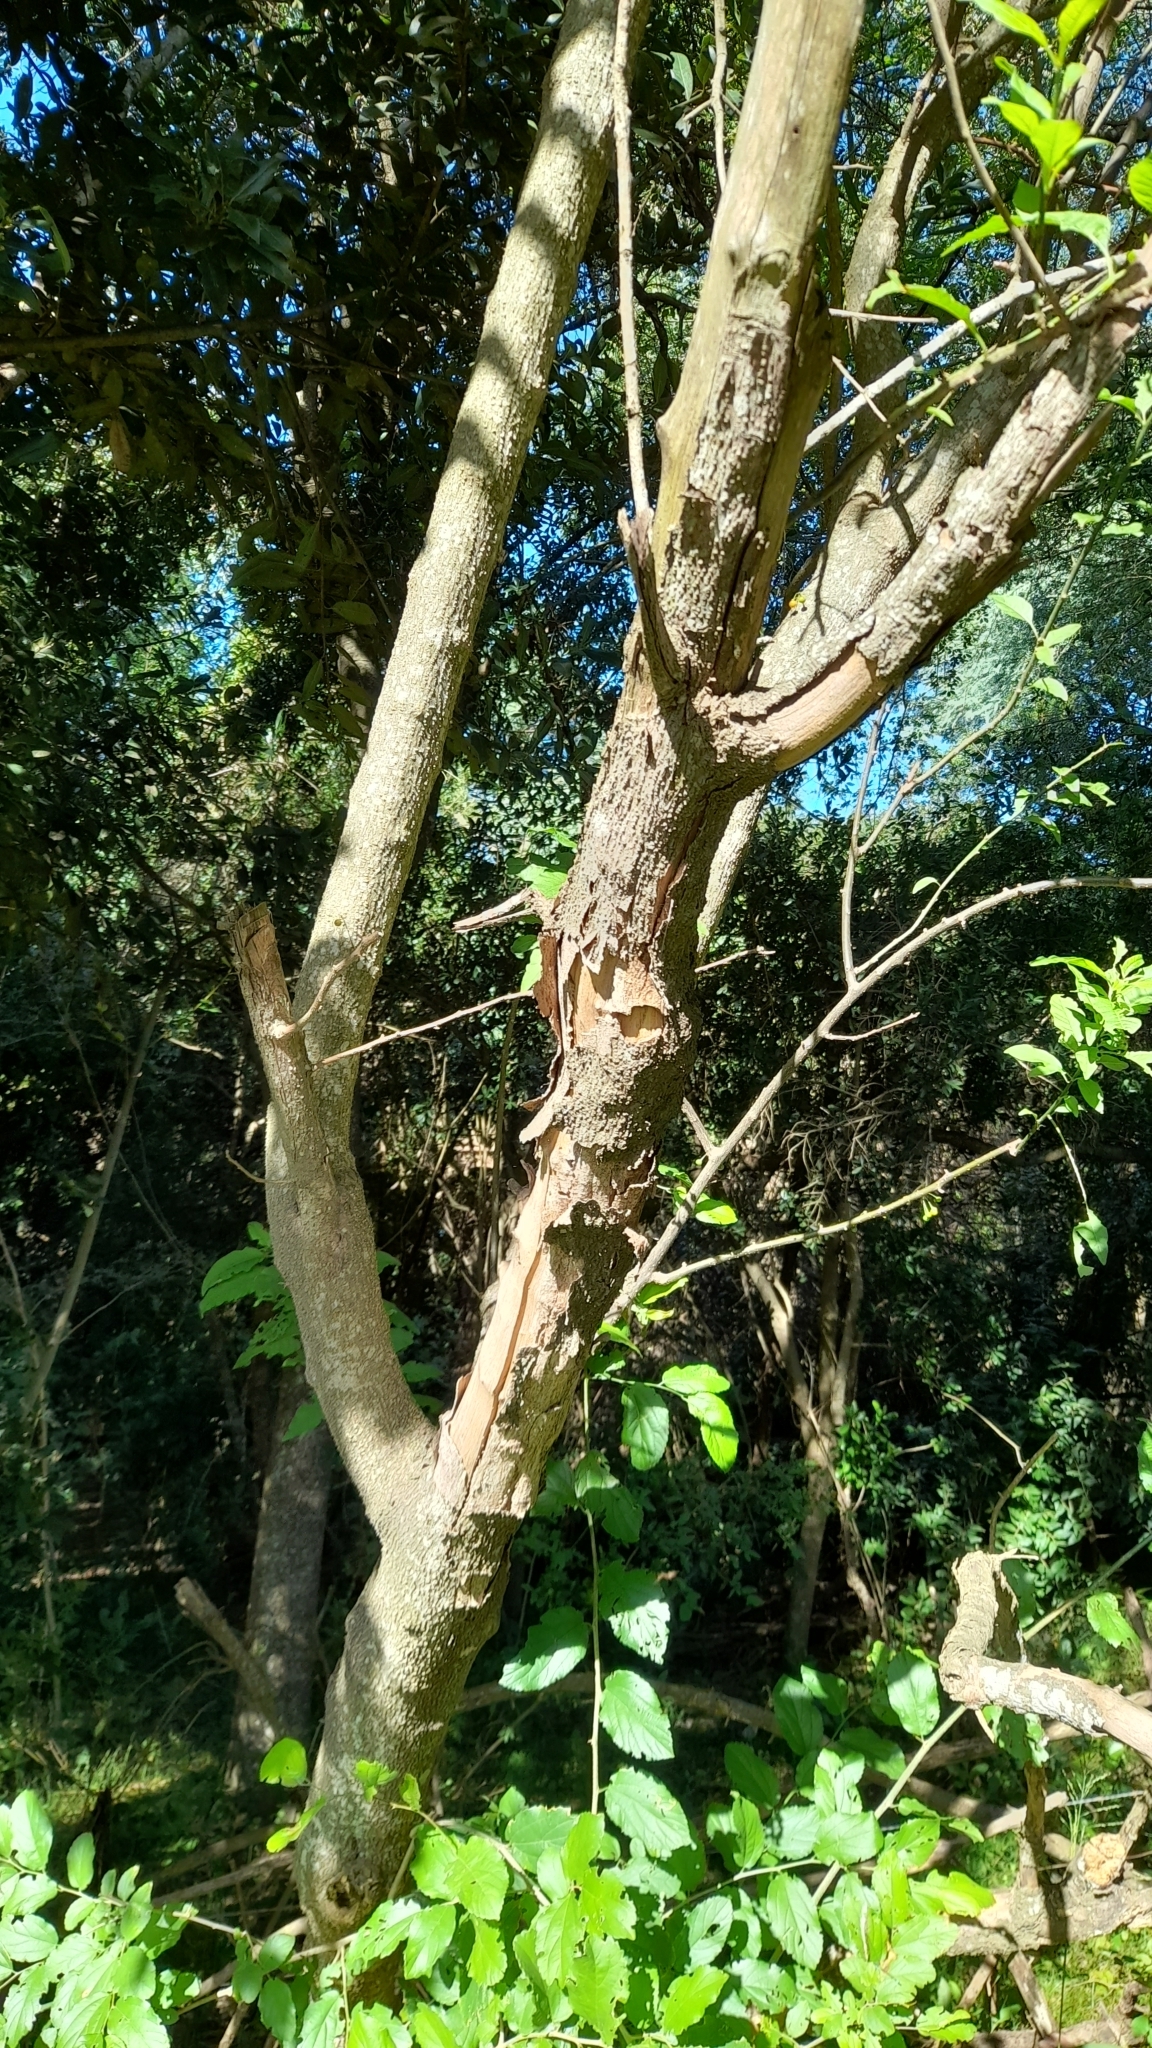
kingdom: Plantae
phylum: Tracheophyta
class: Magnoliopsida
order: Solanales
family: Solanaceae
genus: Vassobia
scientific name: Vassobia breviflora
